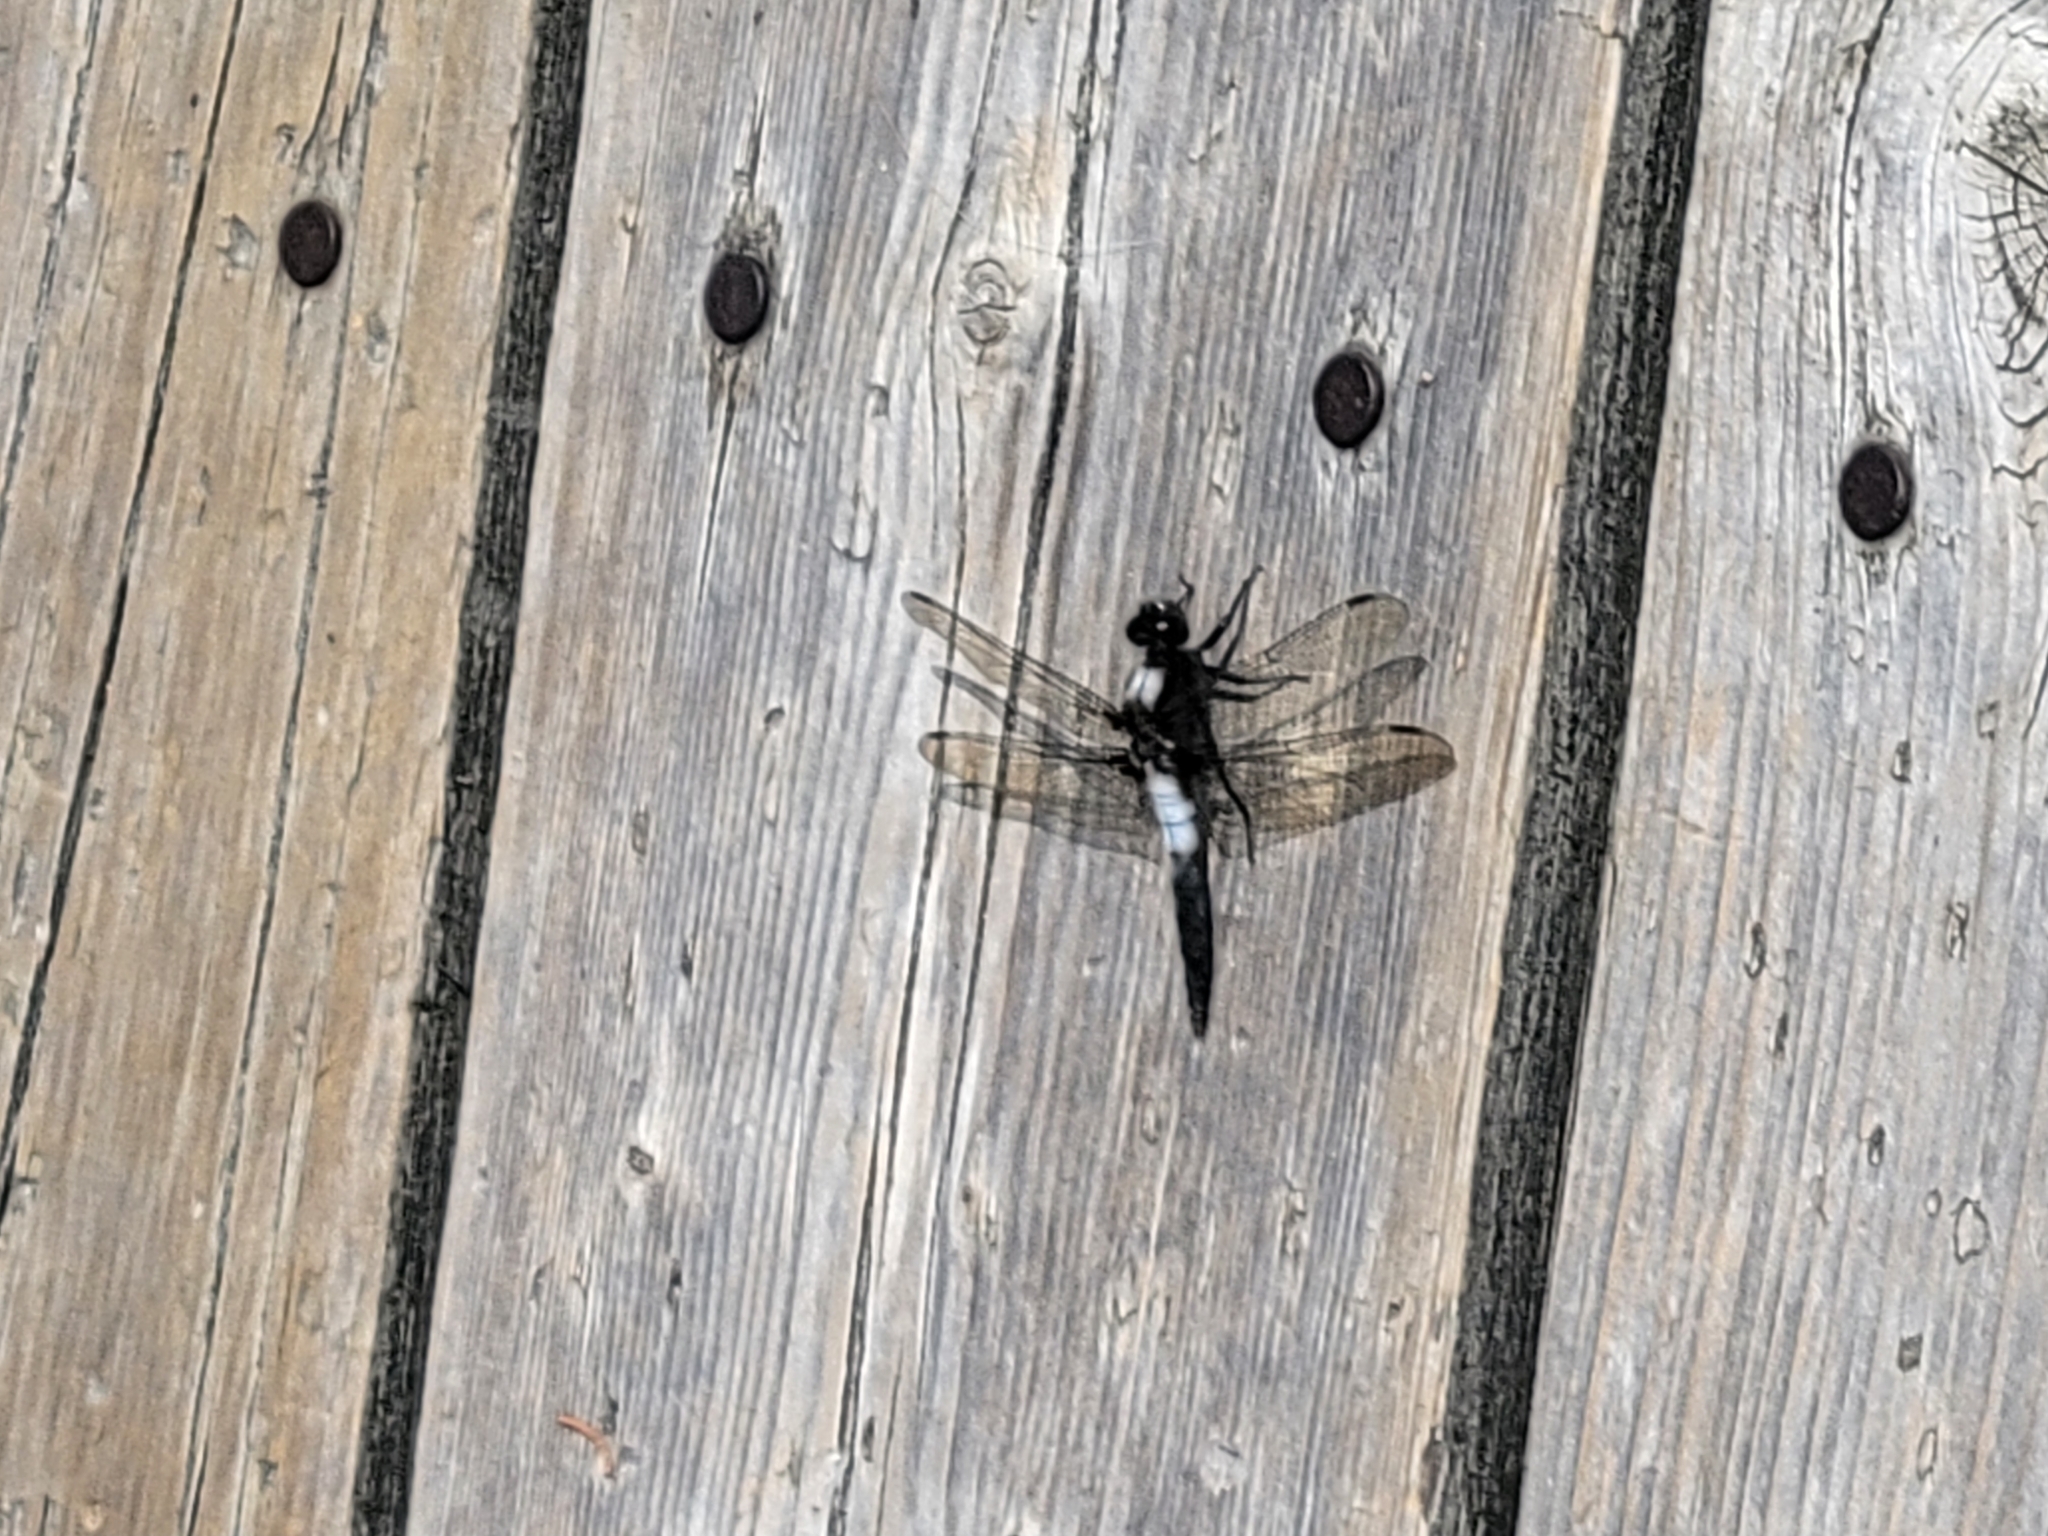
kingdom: Animalia
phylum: Arthropoda
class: Insecta
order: Odonata
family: Libellulidae
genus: Ladona
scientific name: Ladona julia
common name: Chalk-fronted corporal
